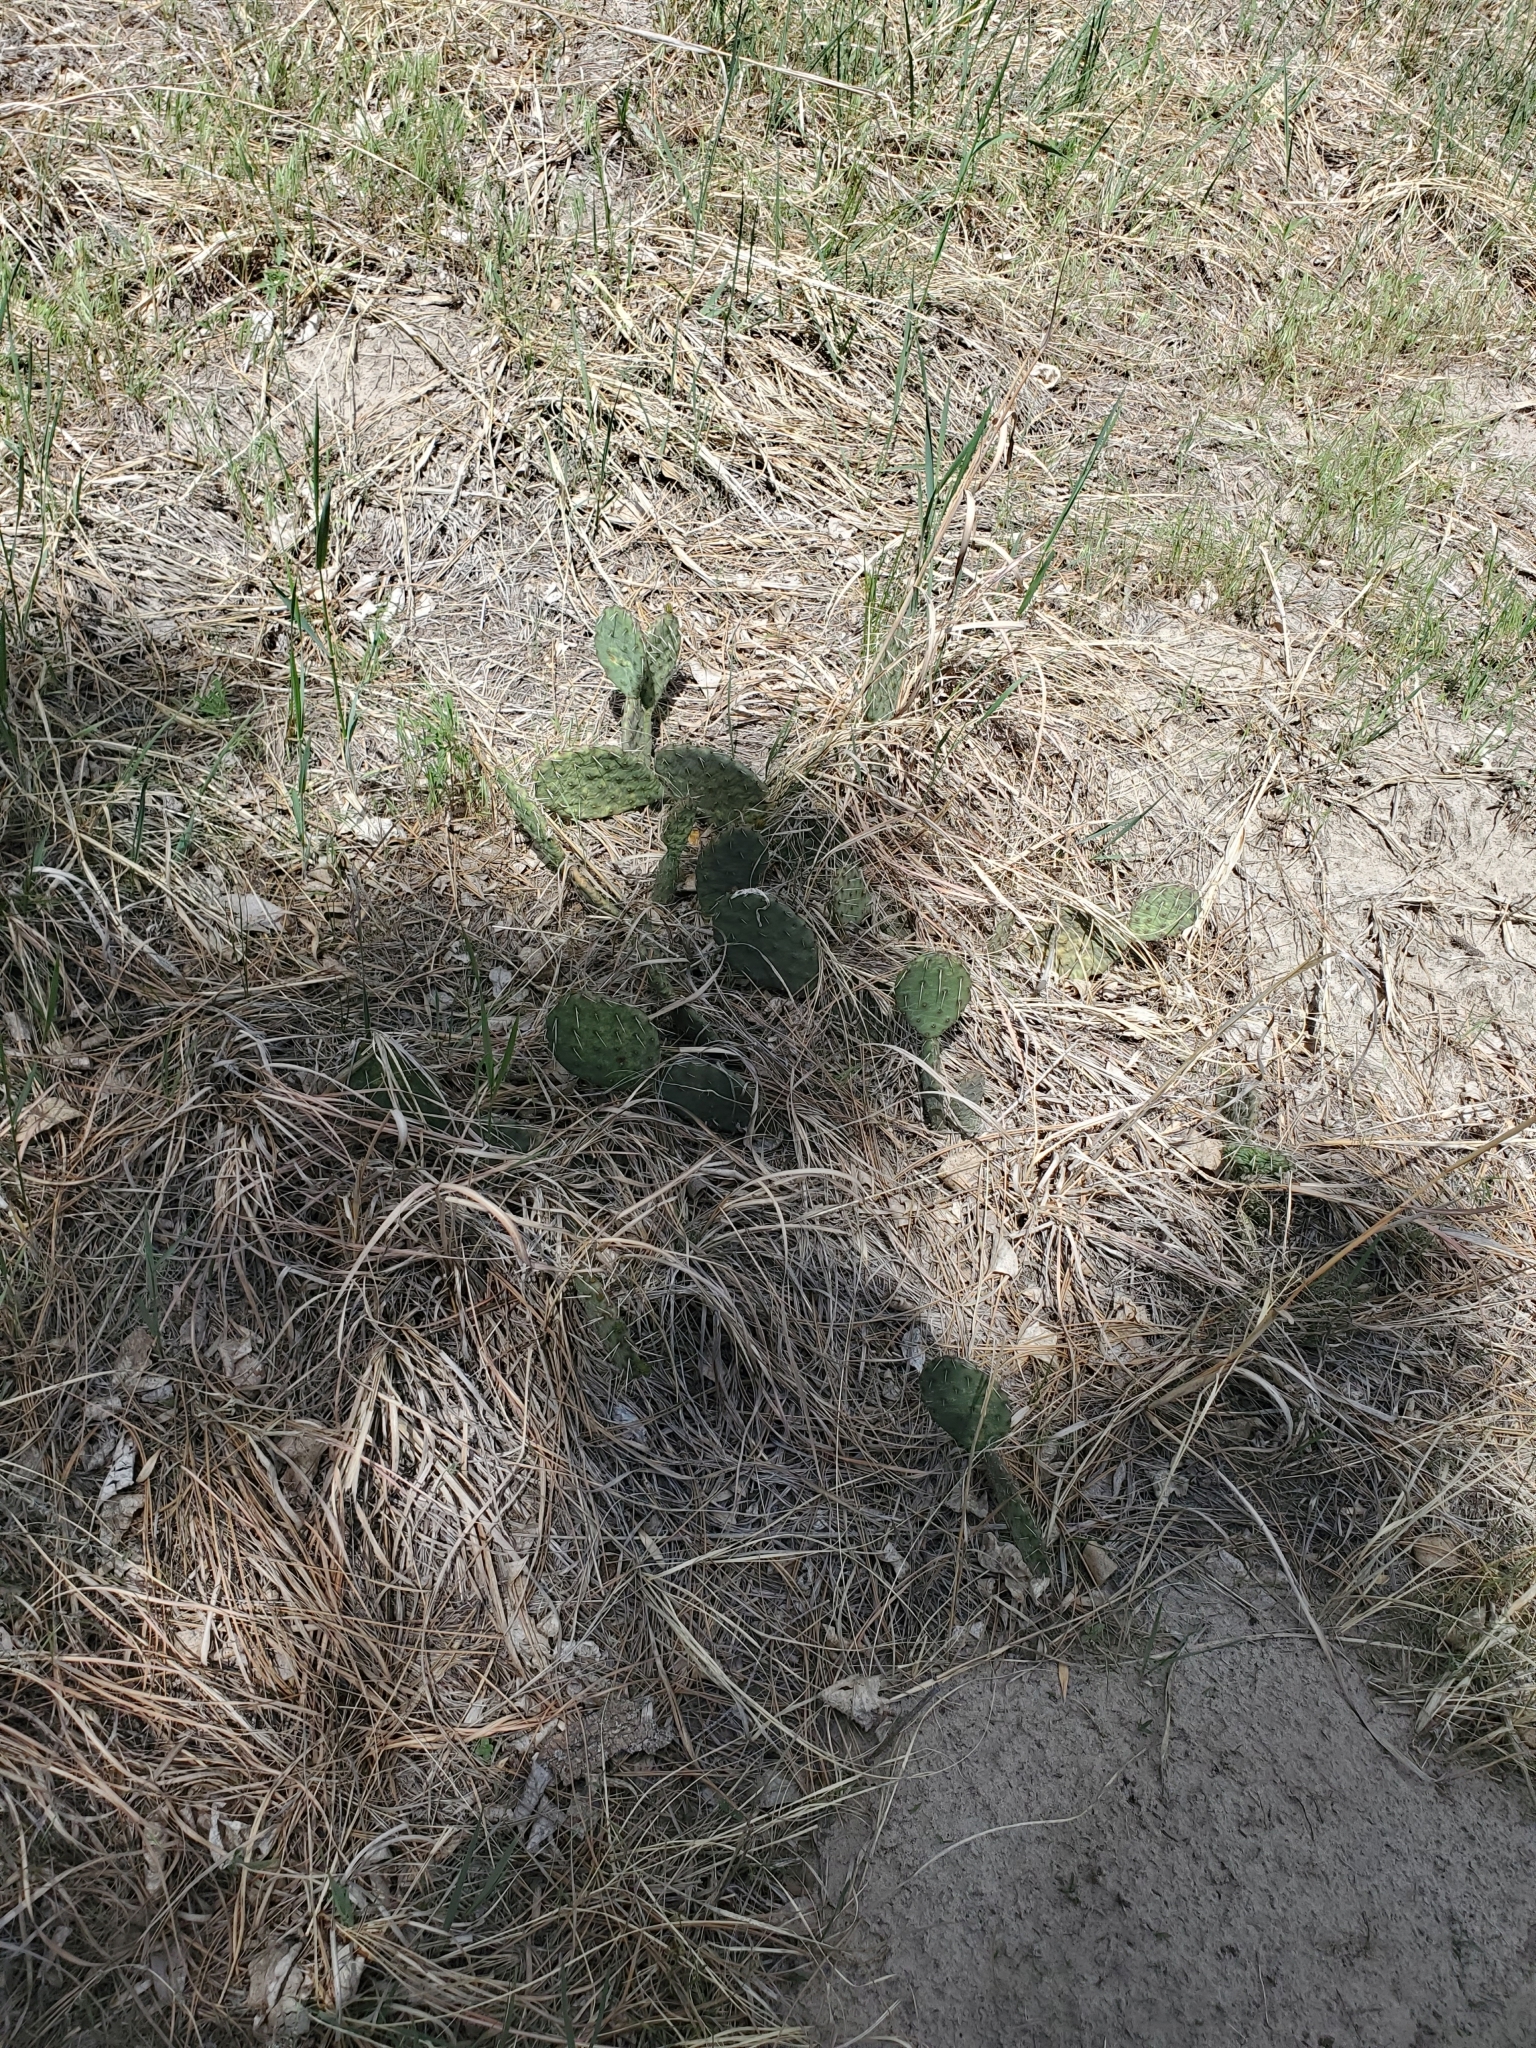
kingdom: Plantae
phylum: Tracheophyta
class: Magnoliopsida
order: Caryophyllales
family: Cactaceae
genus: Opuntia
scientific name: Opuntia macrorhiza
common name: Grassland pricklypear
